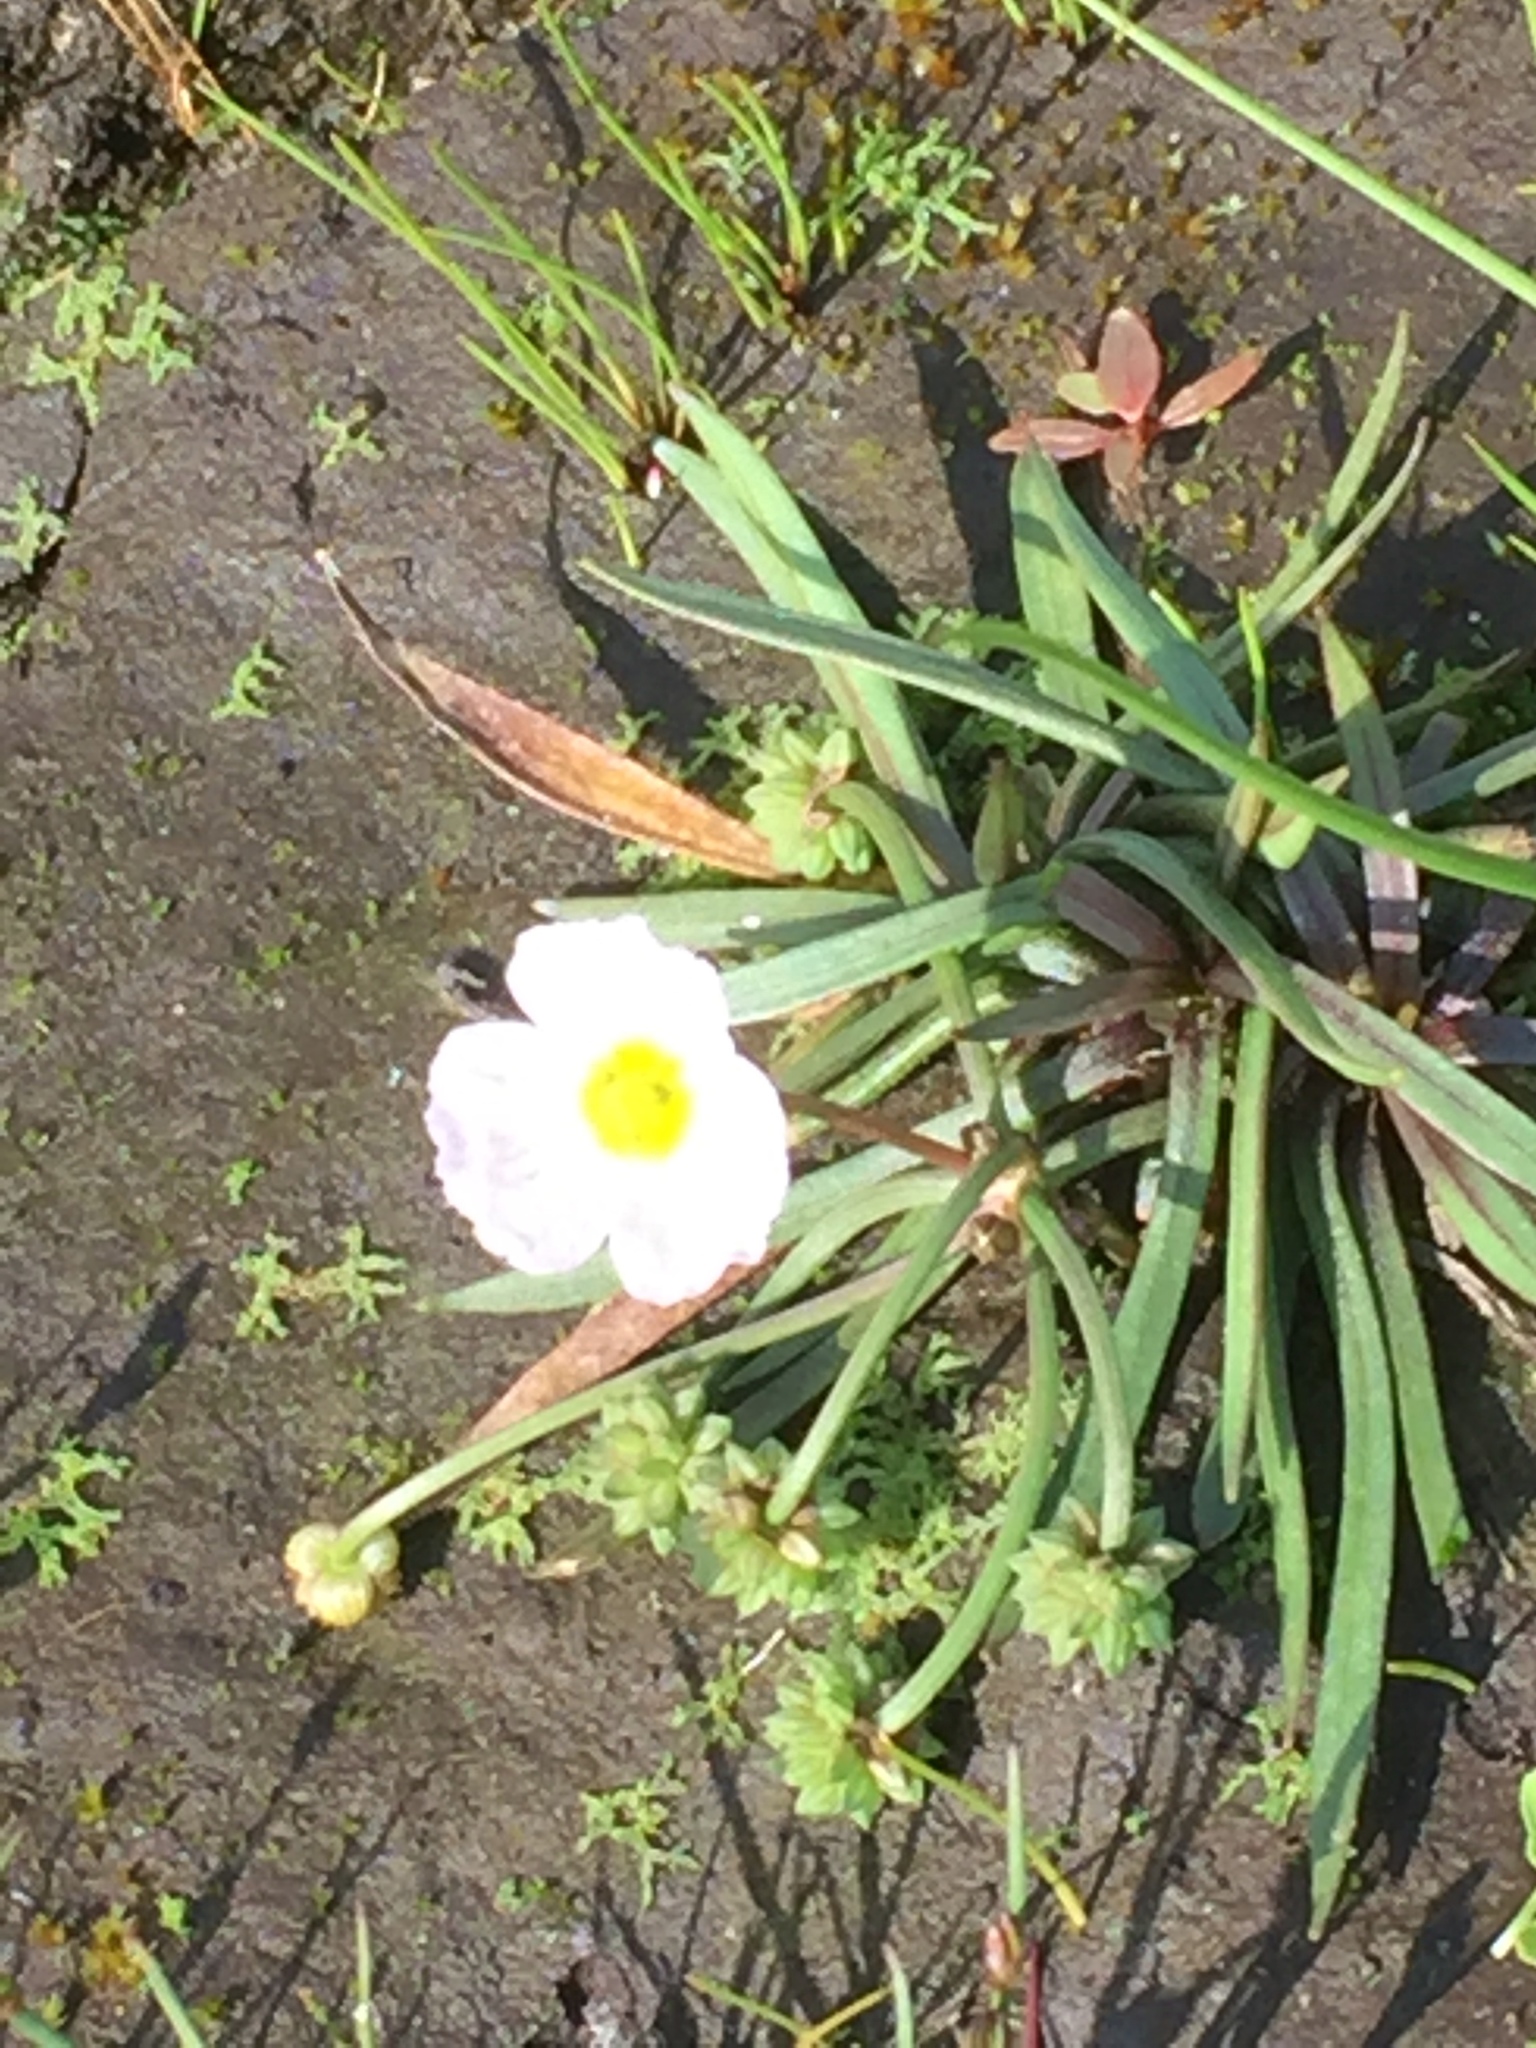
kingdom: Plantae
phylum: Tracheophyta
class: Liliopsida
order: Alismatales
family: Alismataceae
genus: Baldellia
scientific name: Baldellia ranunculoides
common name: Lesser water-plantain
